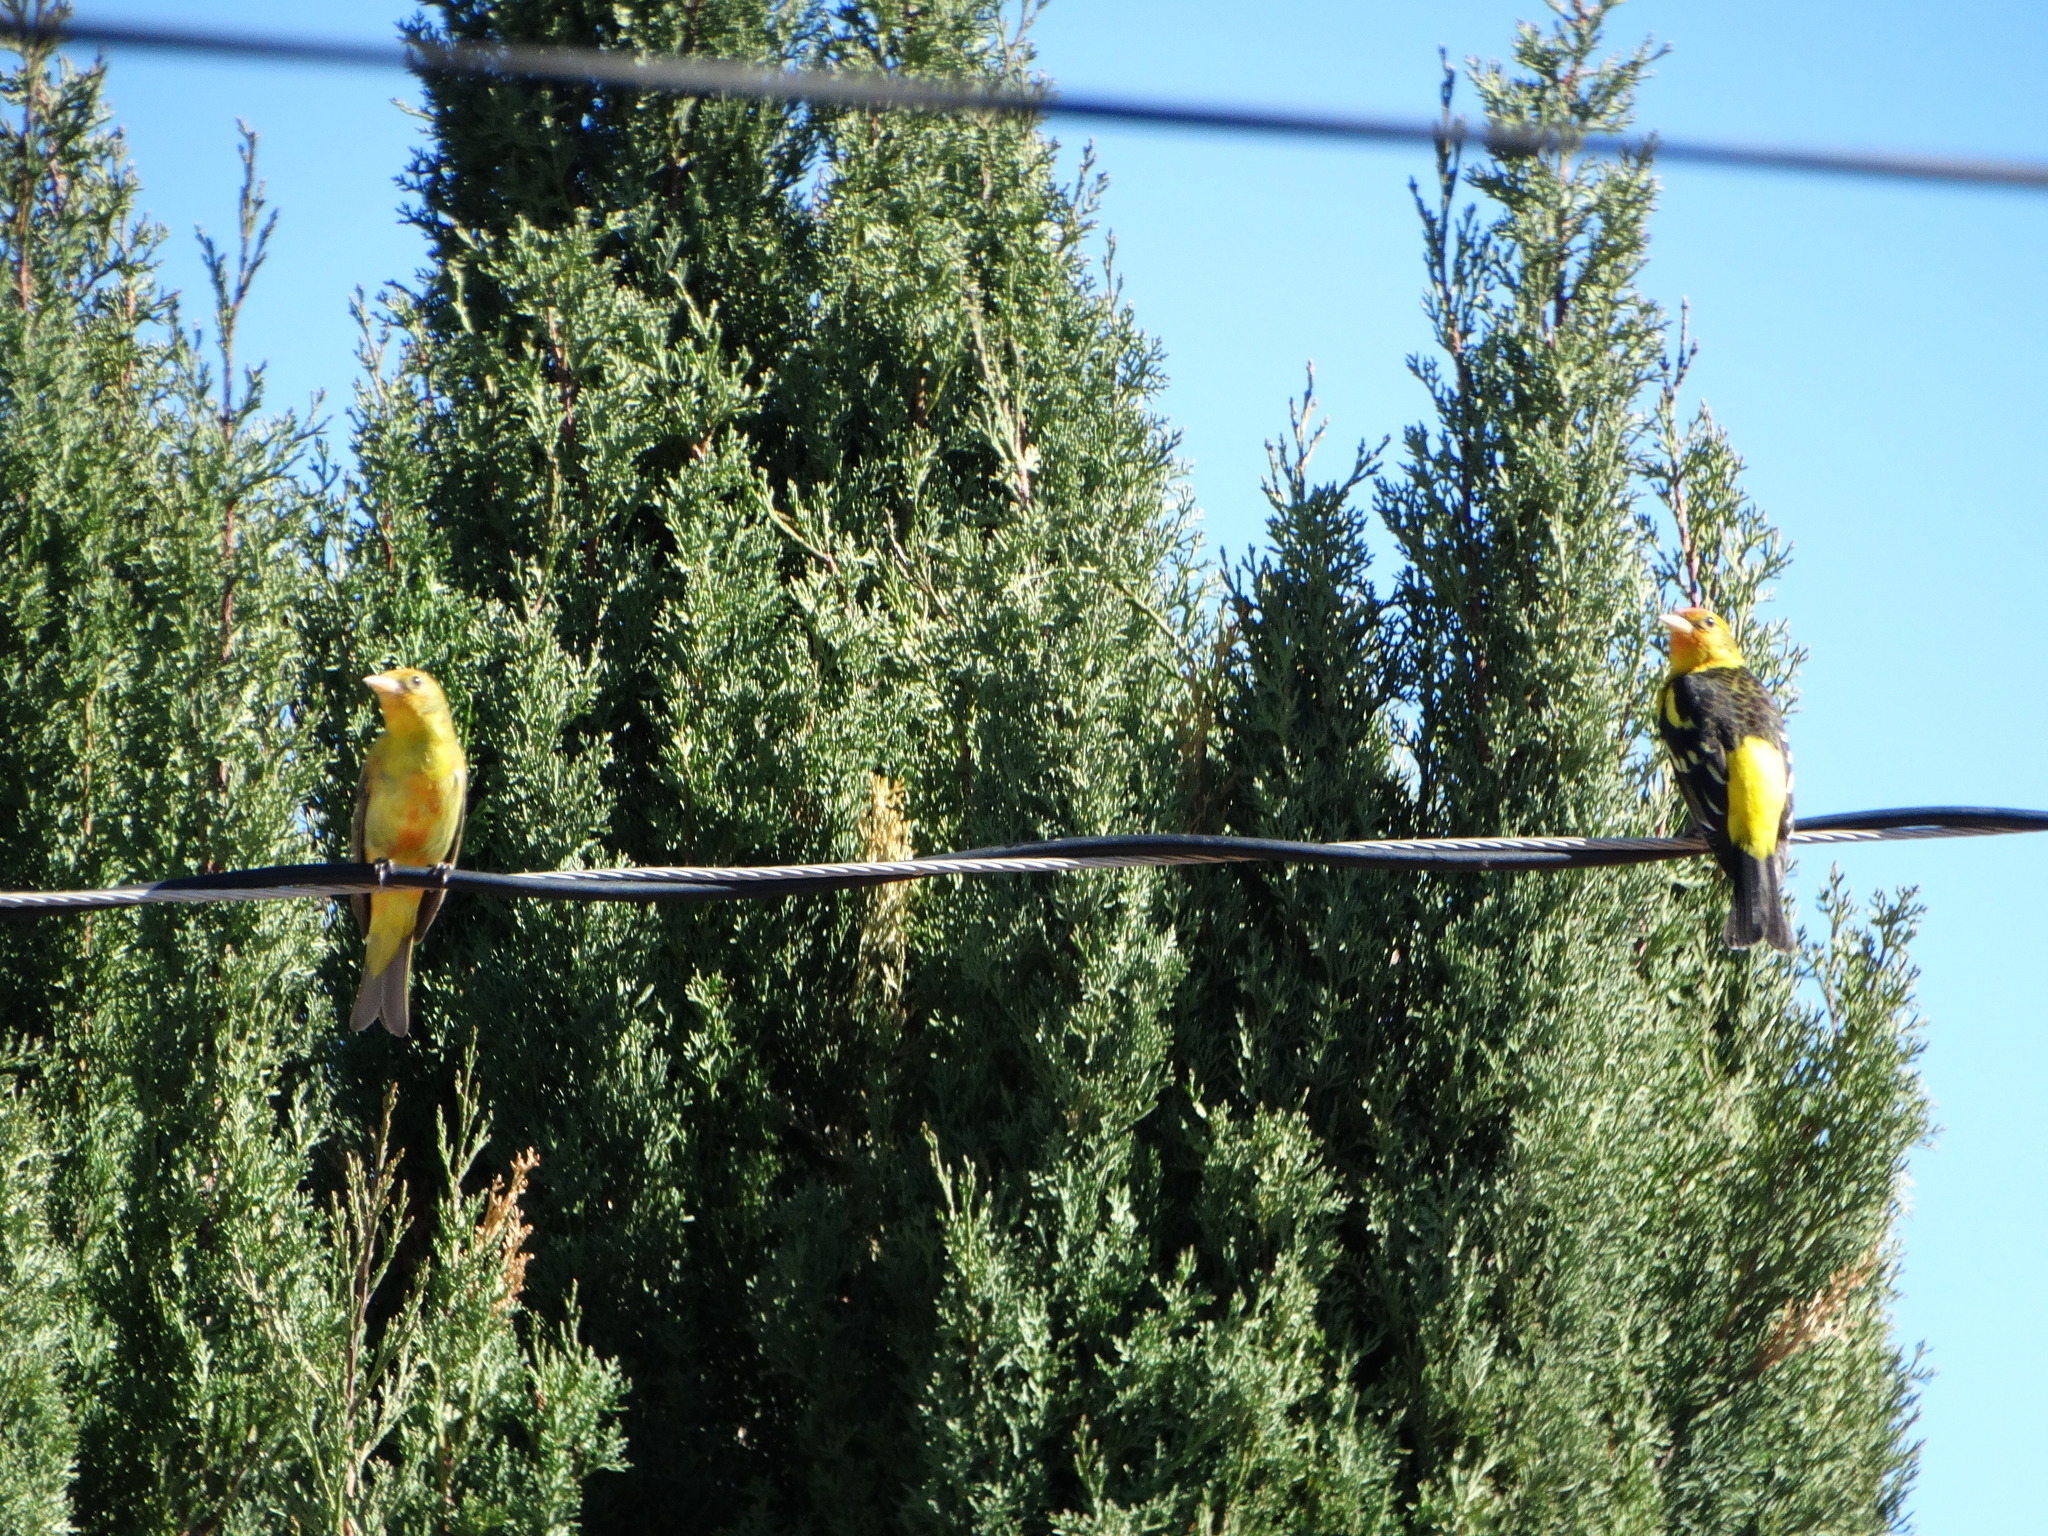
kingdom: Animalia
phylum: Chordata
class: Aves
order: Passeriformes
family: Cardinalidae
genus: Piranga
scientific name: Piranga ludoviciana
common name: Western tanager
